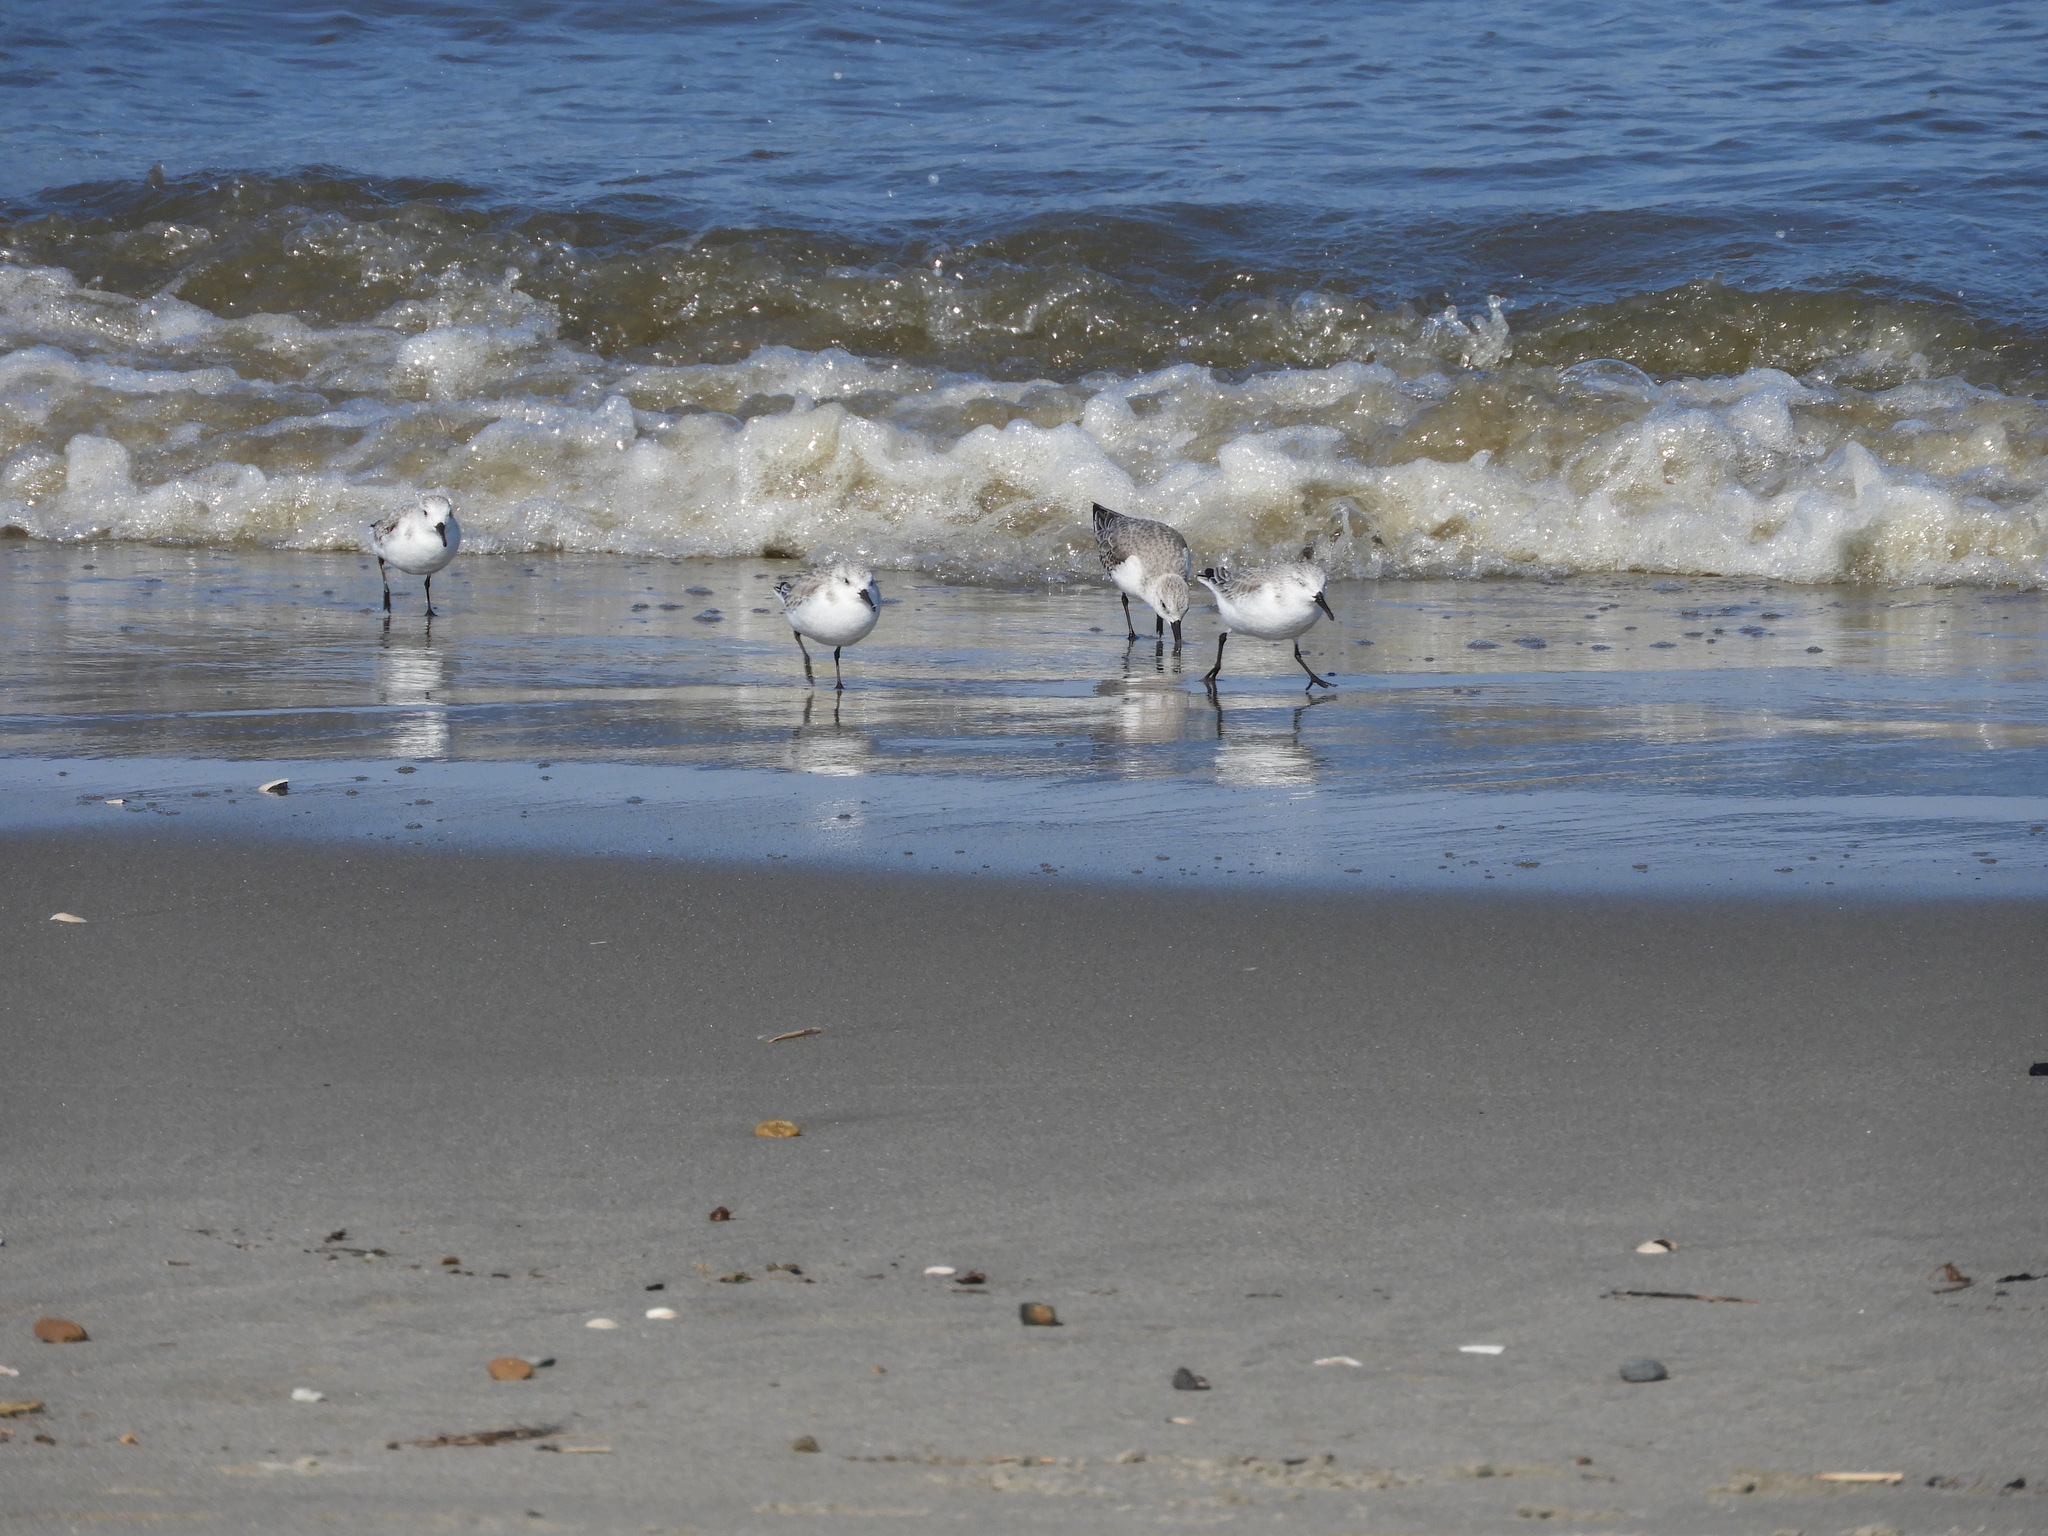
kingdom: Animalia
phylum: Chordata
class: Aves
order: Charadriiformes
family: Scolopacidae
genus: Calidris
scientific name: Calidris alba
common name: Sanderling
